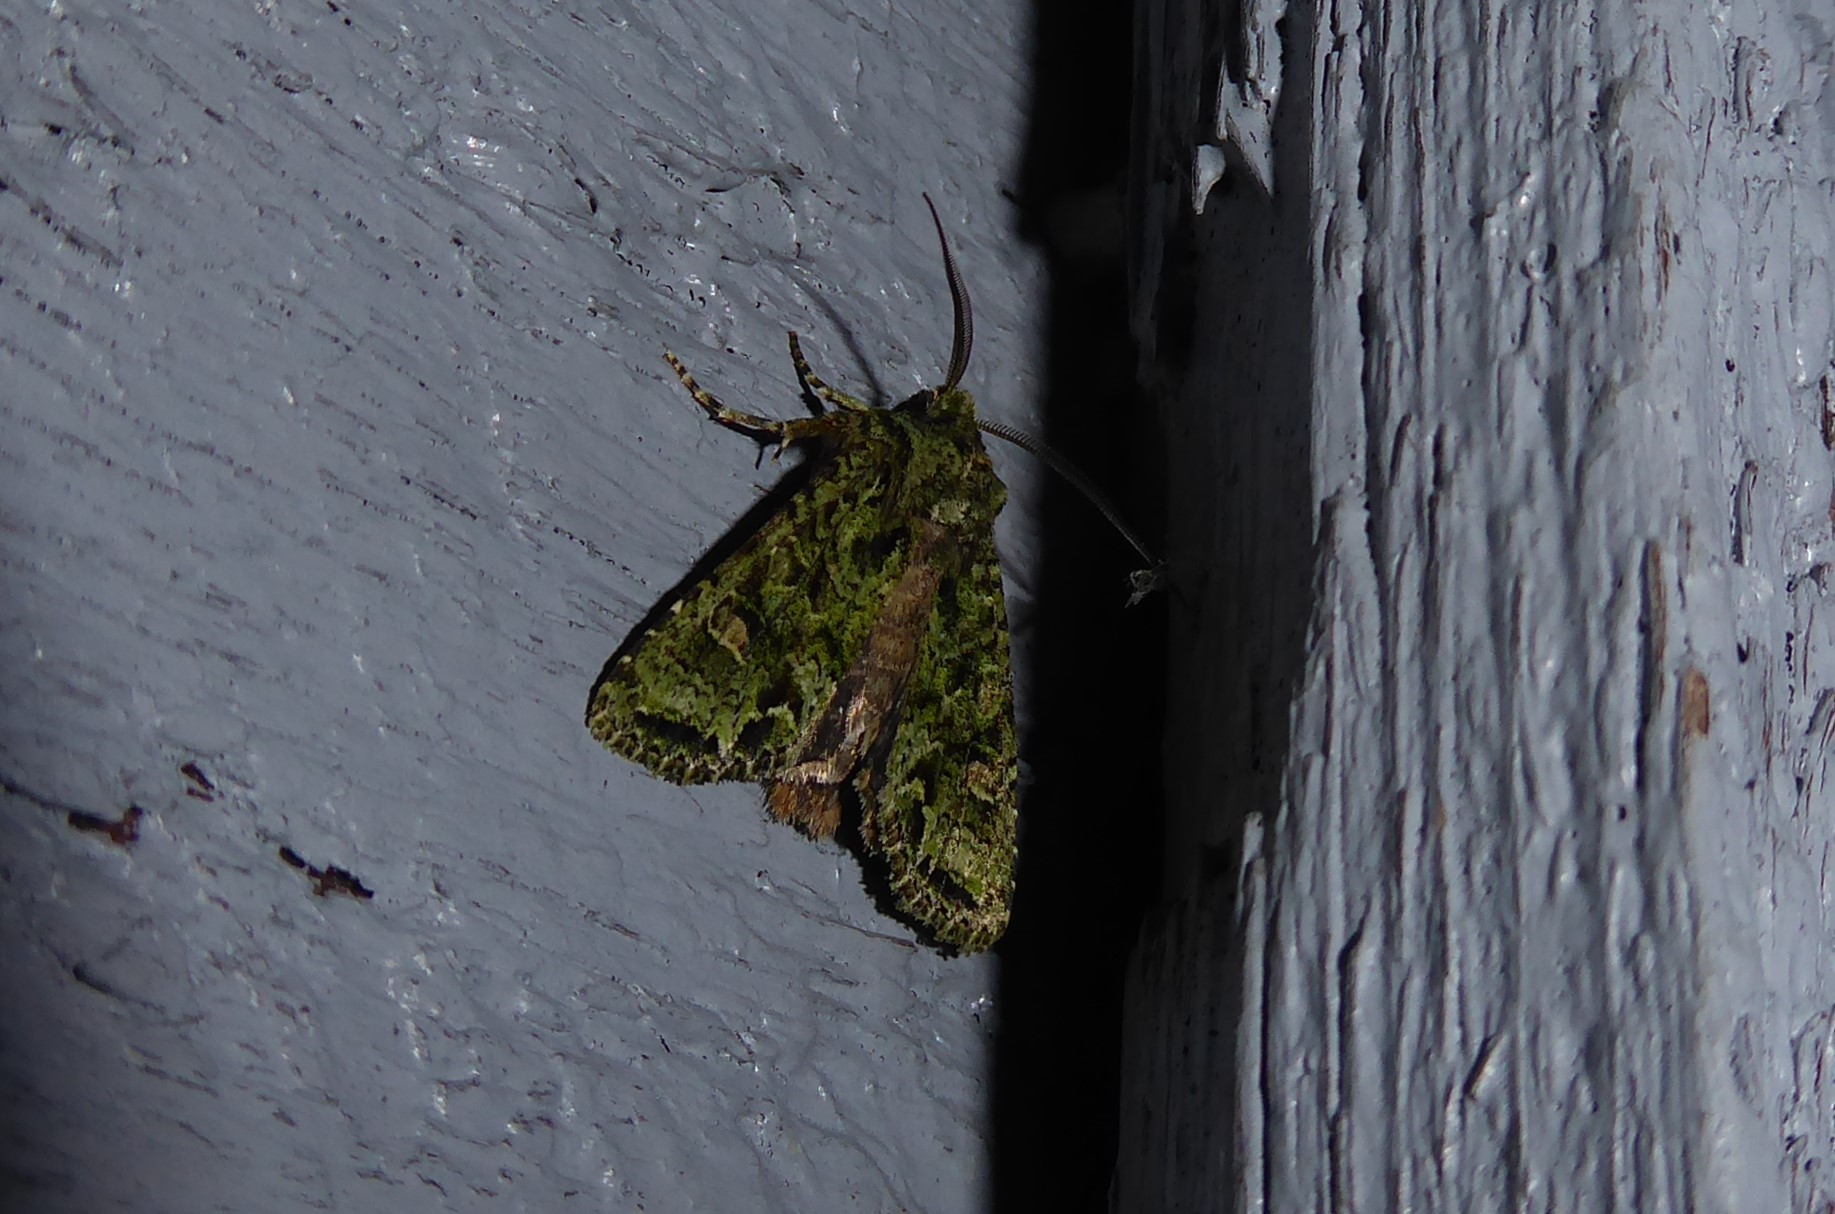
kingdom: Animalia
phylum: Arthropoda
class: Insecta
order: Lepidoptera
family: Noctuidae
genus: Ichneutica
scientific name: Ichneutica
